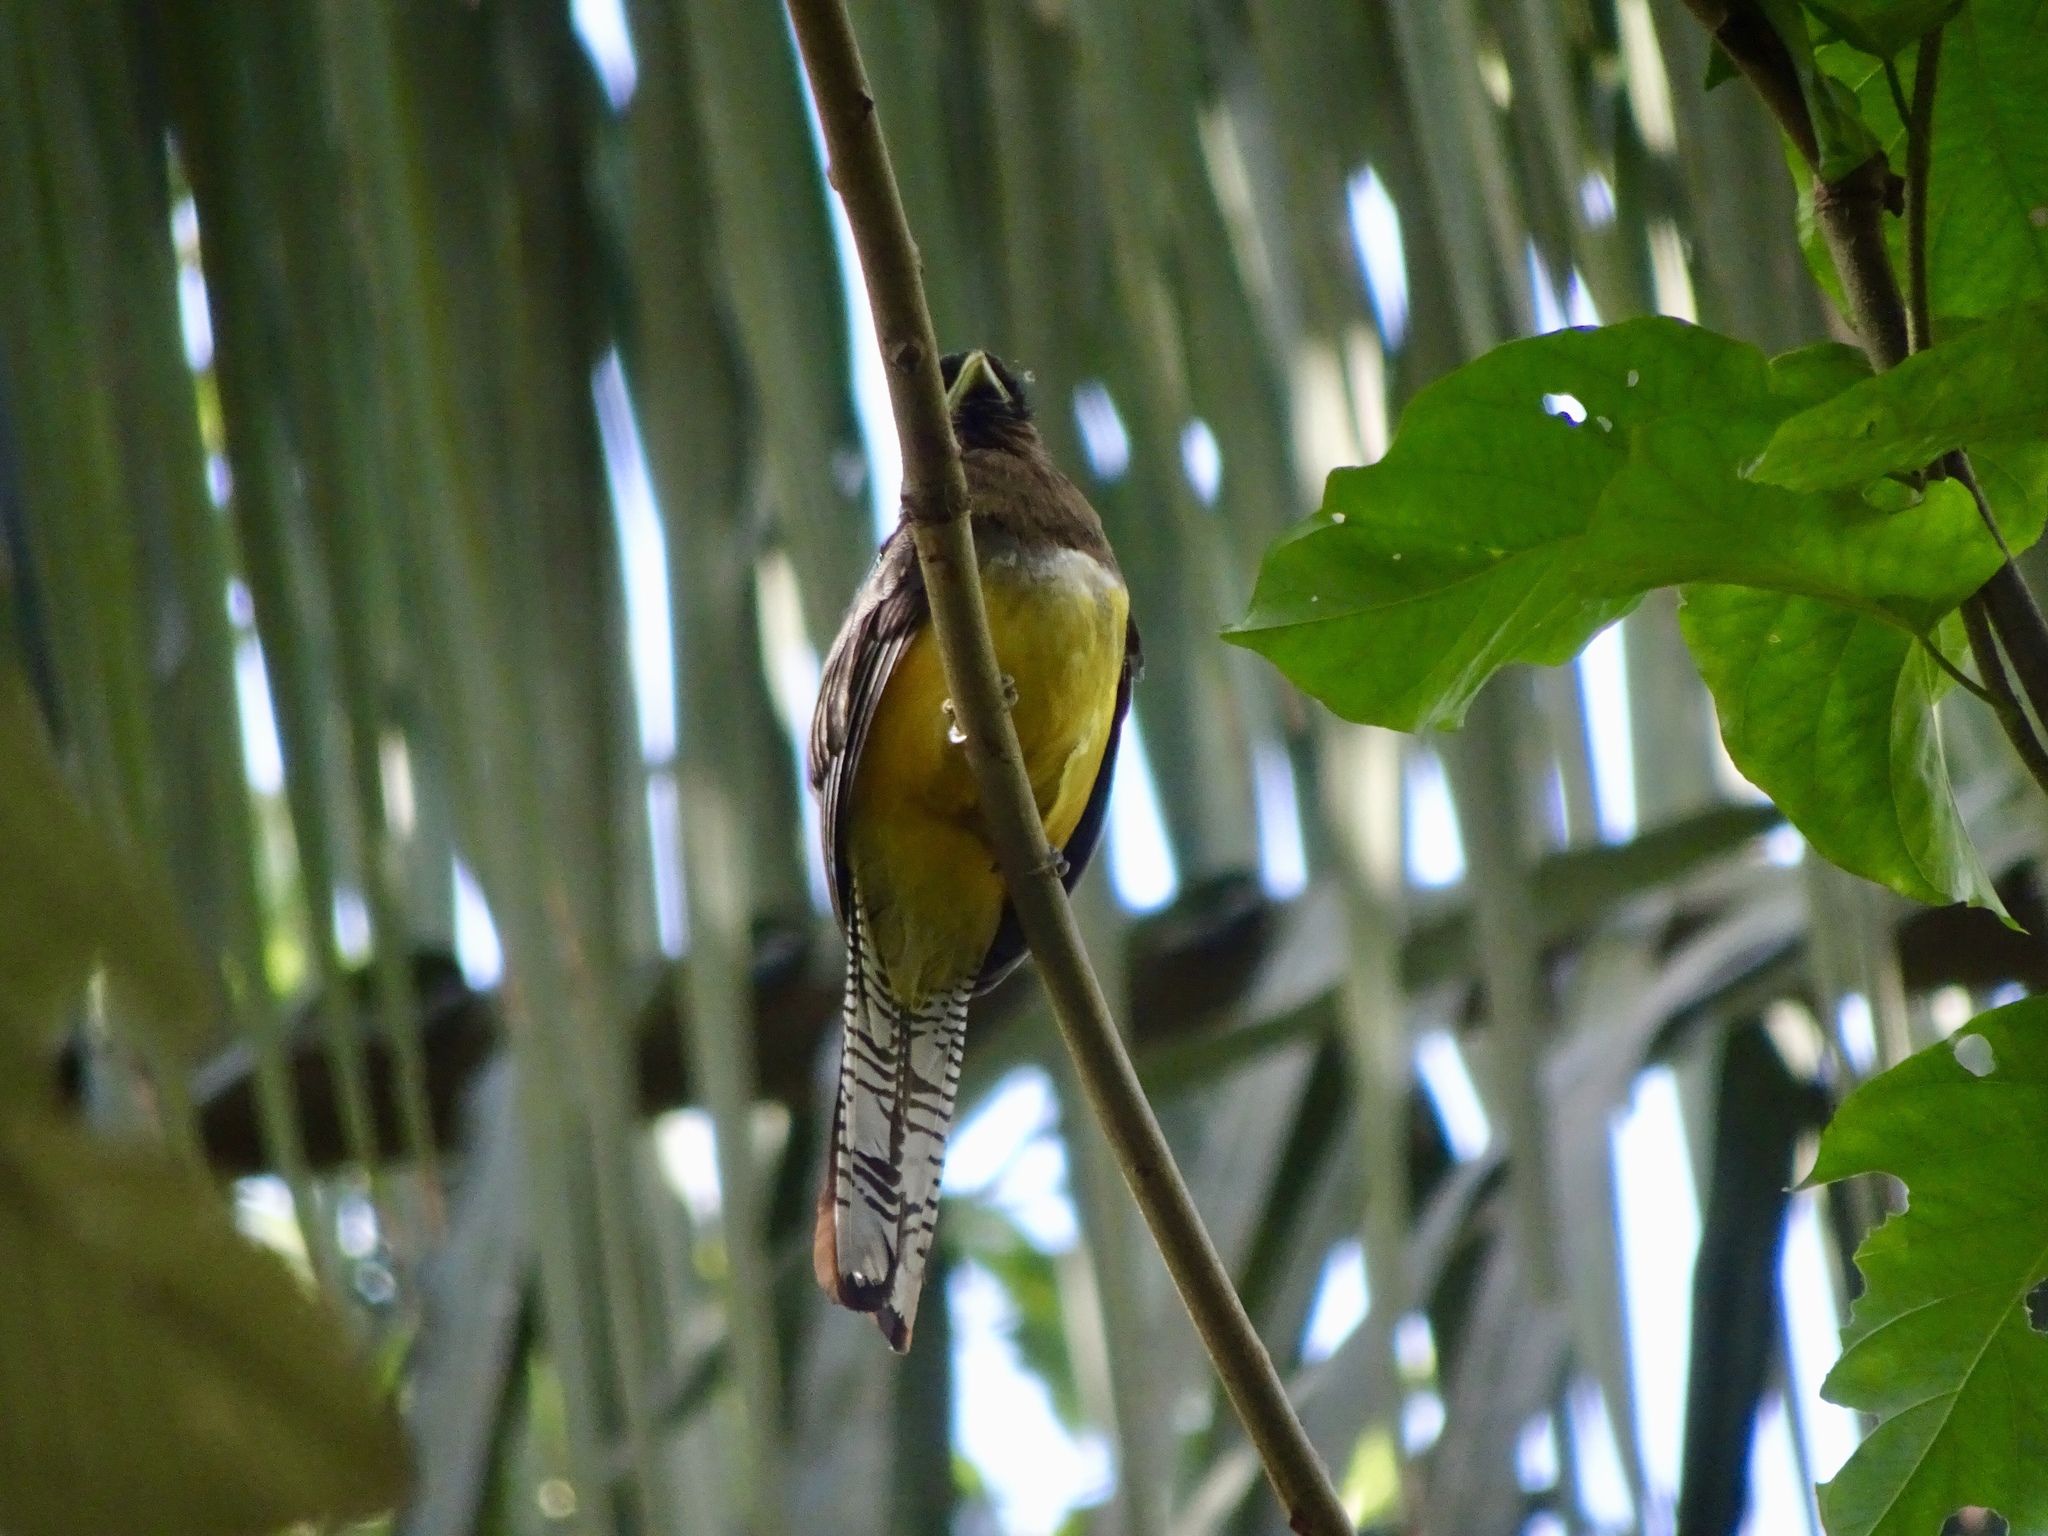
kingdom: Animalia
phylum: Chordata
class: Aves
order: Trogoniformes
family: Trogonidae
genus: Trogon
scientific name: Trogon rufus
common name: Black-throated trogon
